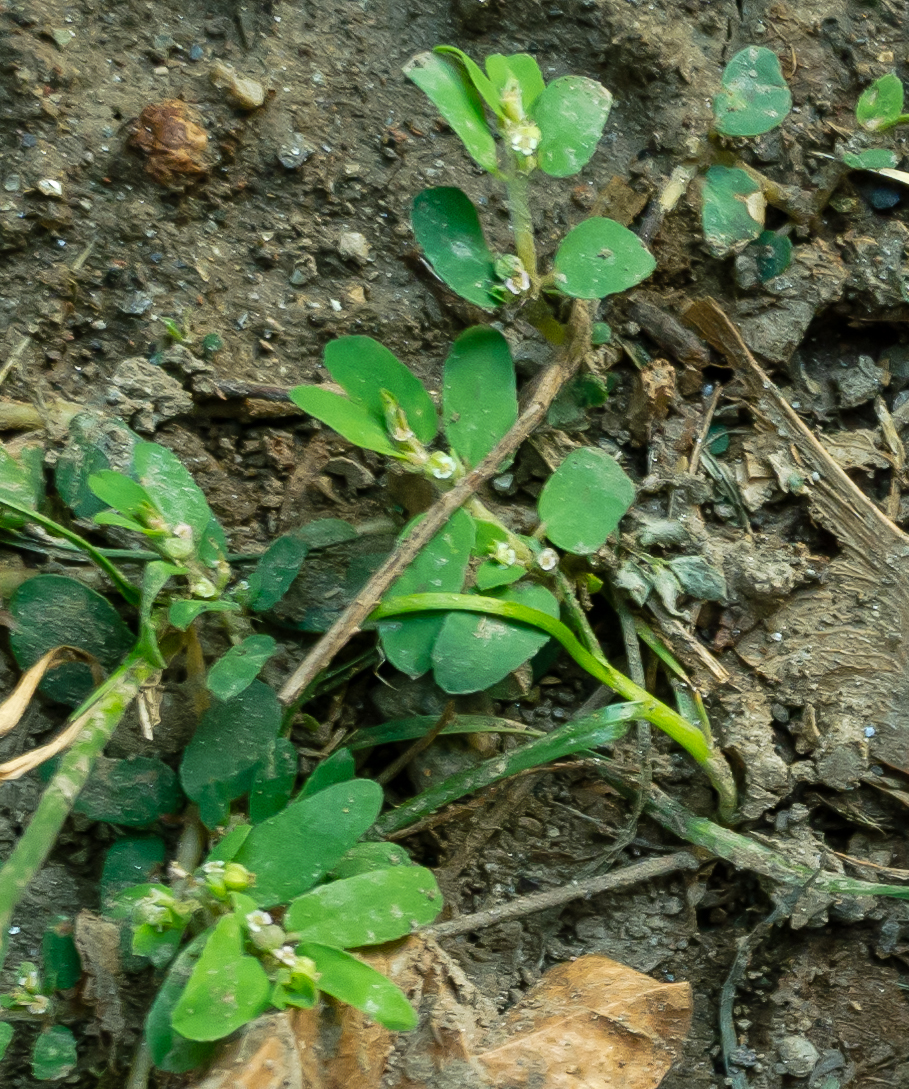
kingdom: Plantae
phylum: Tracheophyta
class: Magnoliopsida
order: Malpighiales
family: Euphorbiaceae
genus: Euphorbia
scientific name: Euphorbia maculata
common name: Spotted spurge
